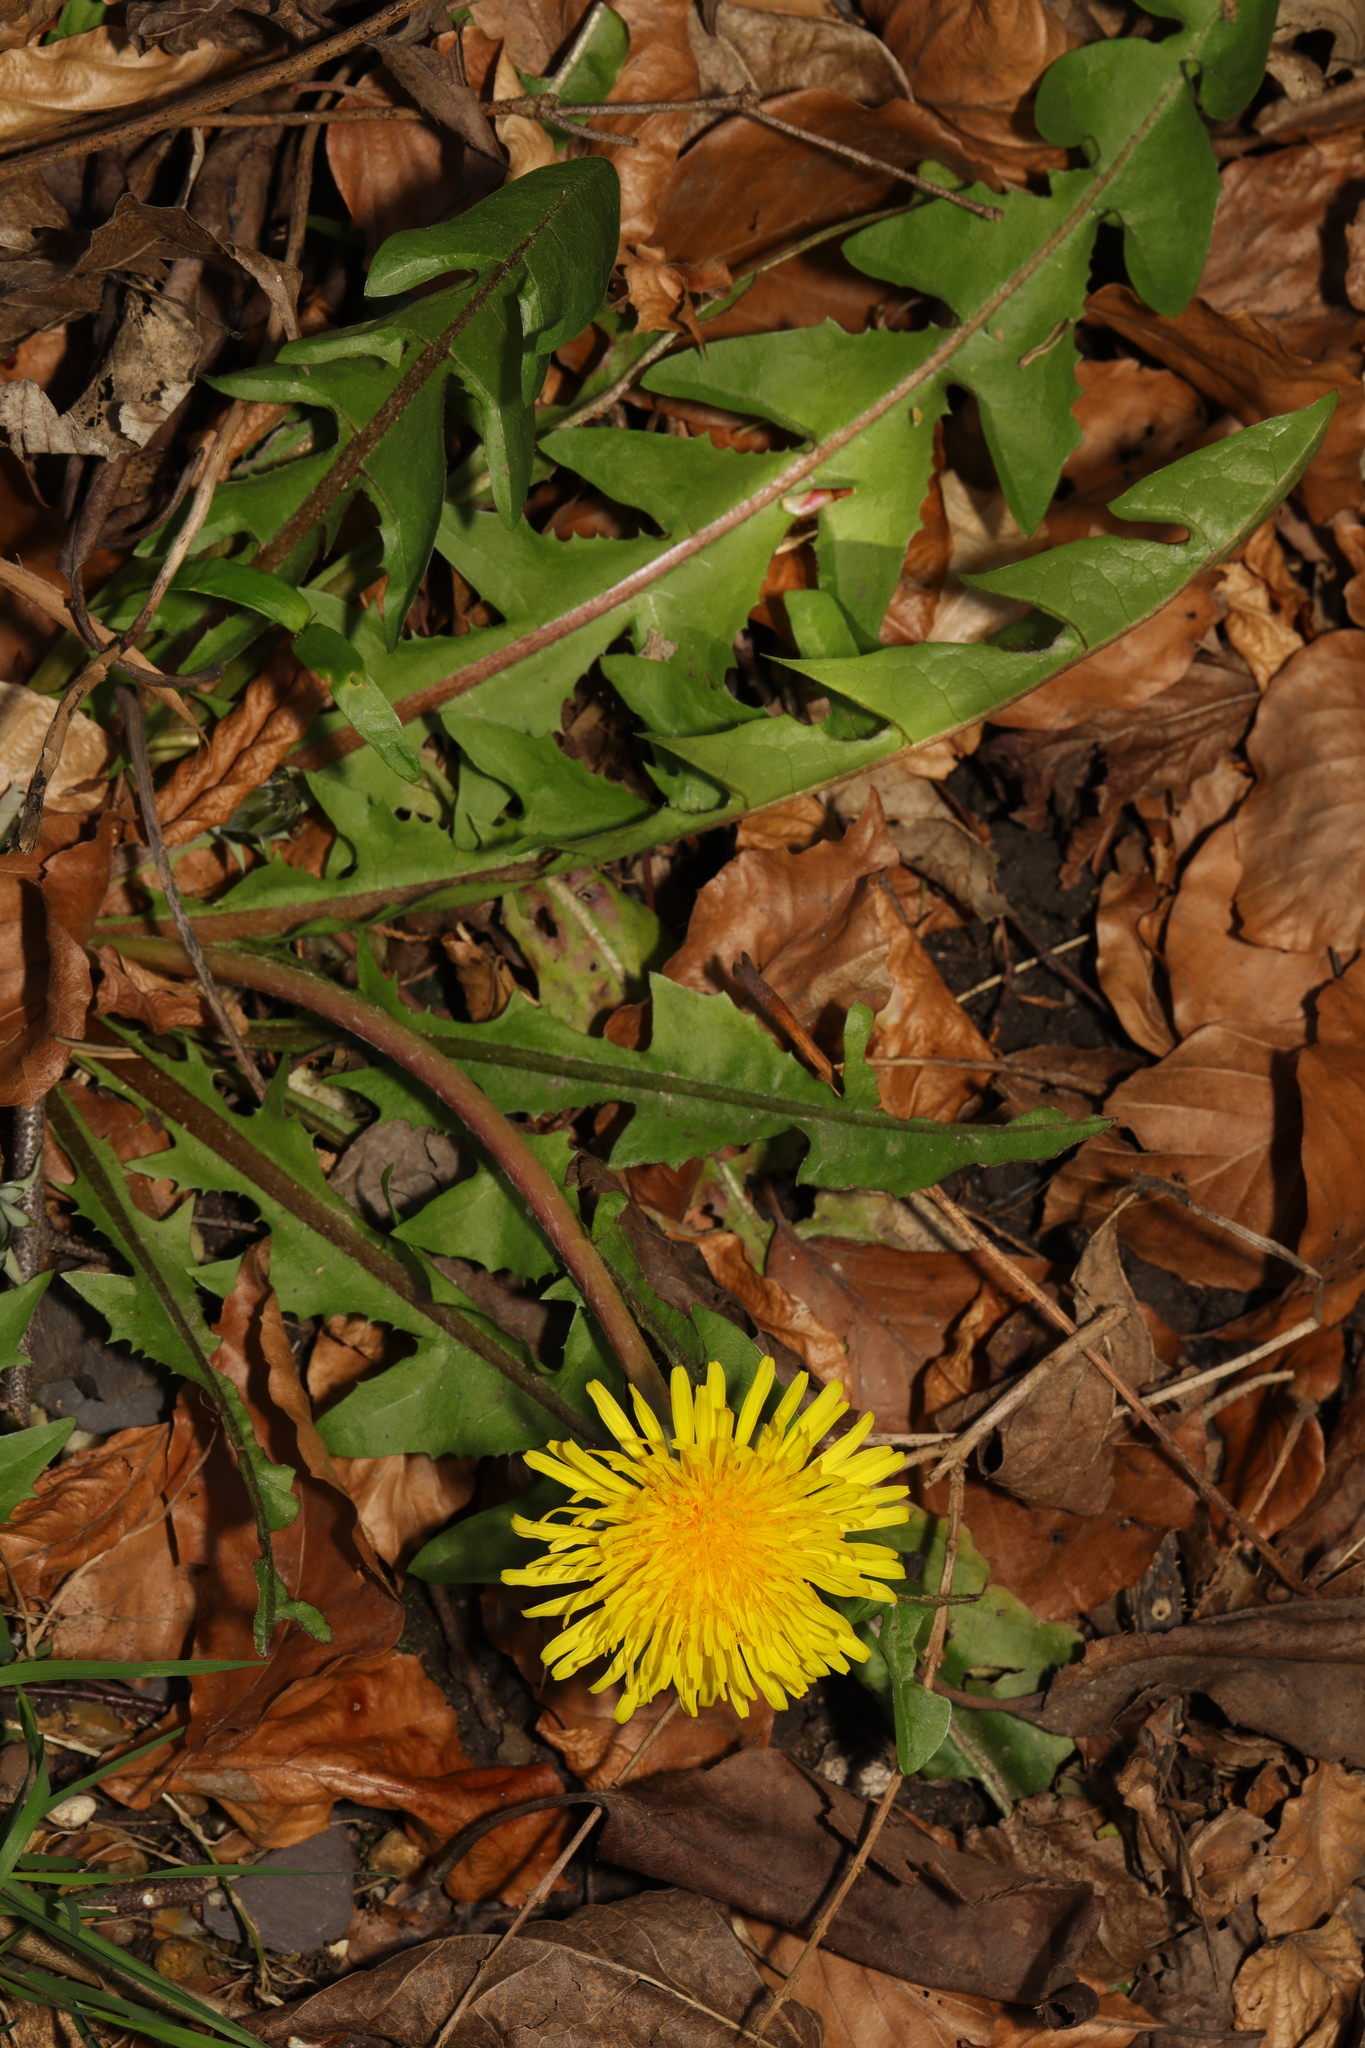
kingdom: Plantae
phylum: Tracheophyta
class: Magnoliopsida
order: Asterales
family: Asteraceae
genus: Taraxacum
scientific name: Taraxacum officinale
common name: Common dandelion
